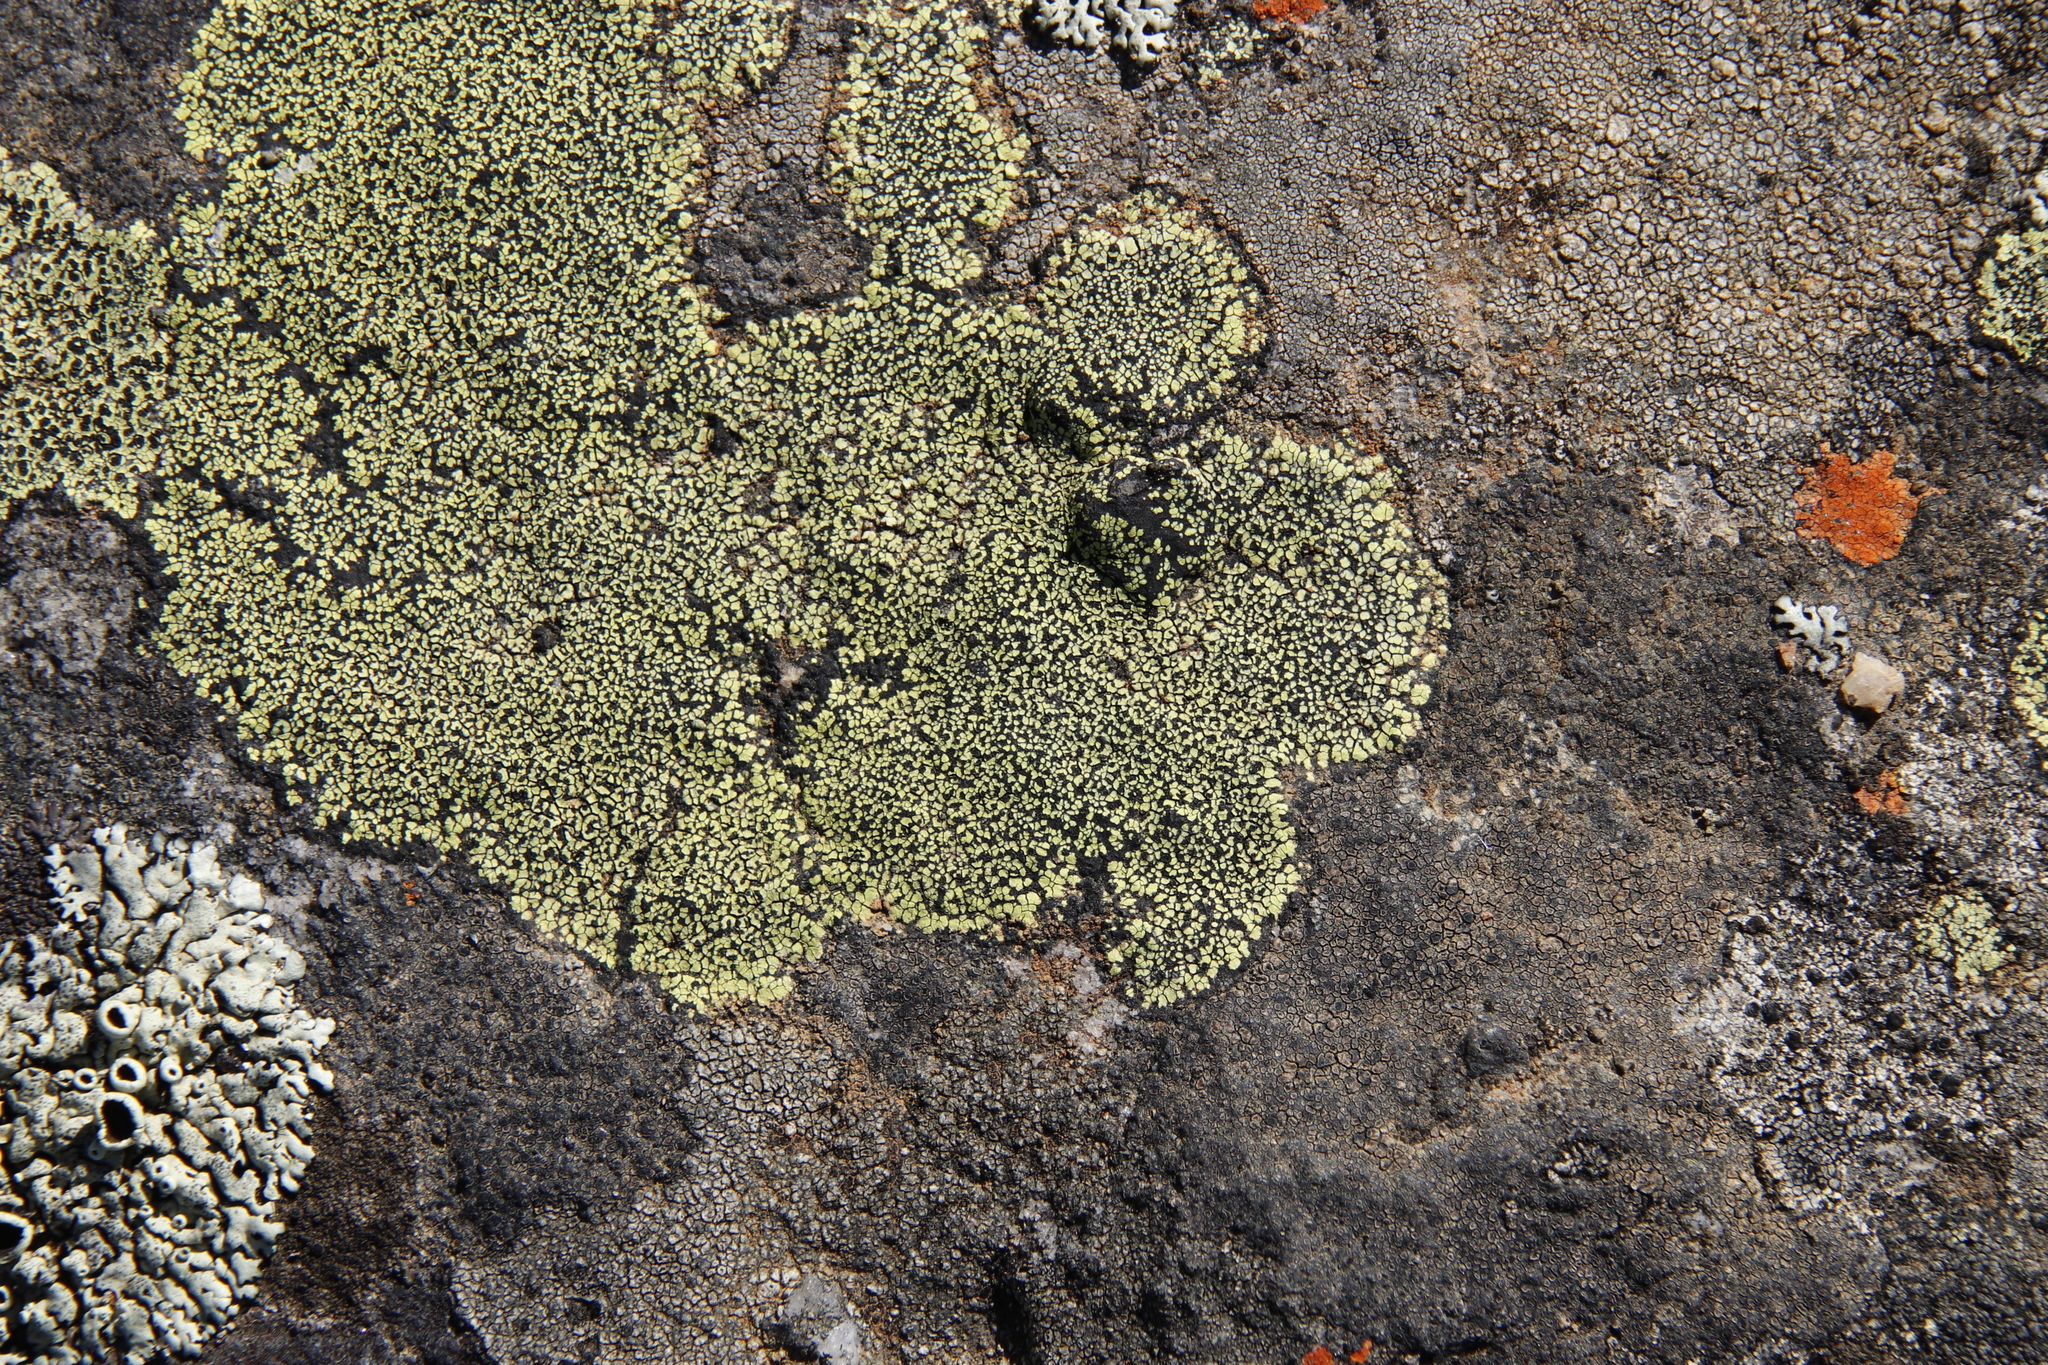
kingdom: Fungi
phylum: Ascomycota
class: Lecanoromycetes
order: Rhizocarpales
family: Rhizocarpaceae
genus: Rhizocarpon
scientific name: Rhizocarpon lecanorinum
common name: Crescent map lichen
